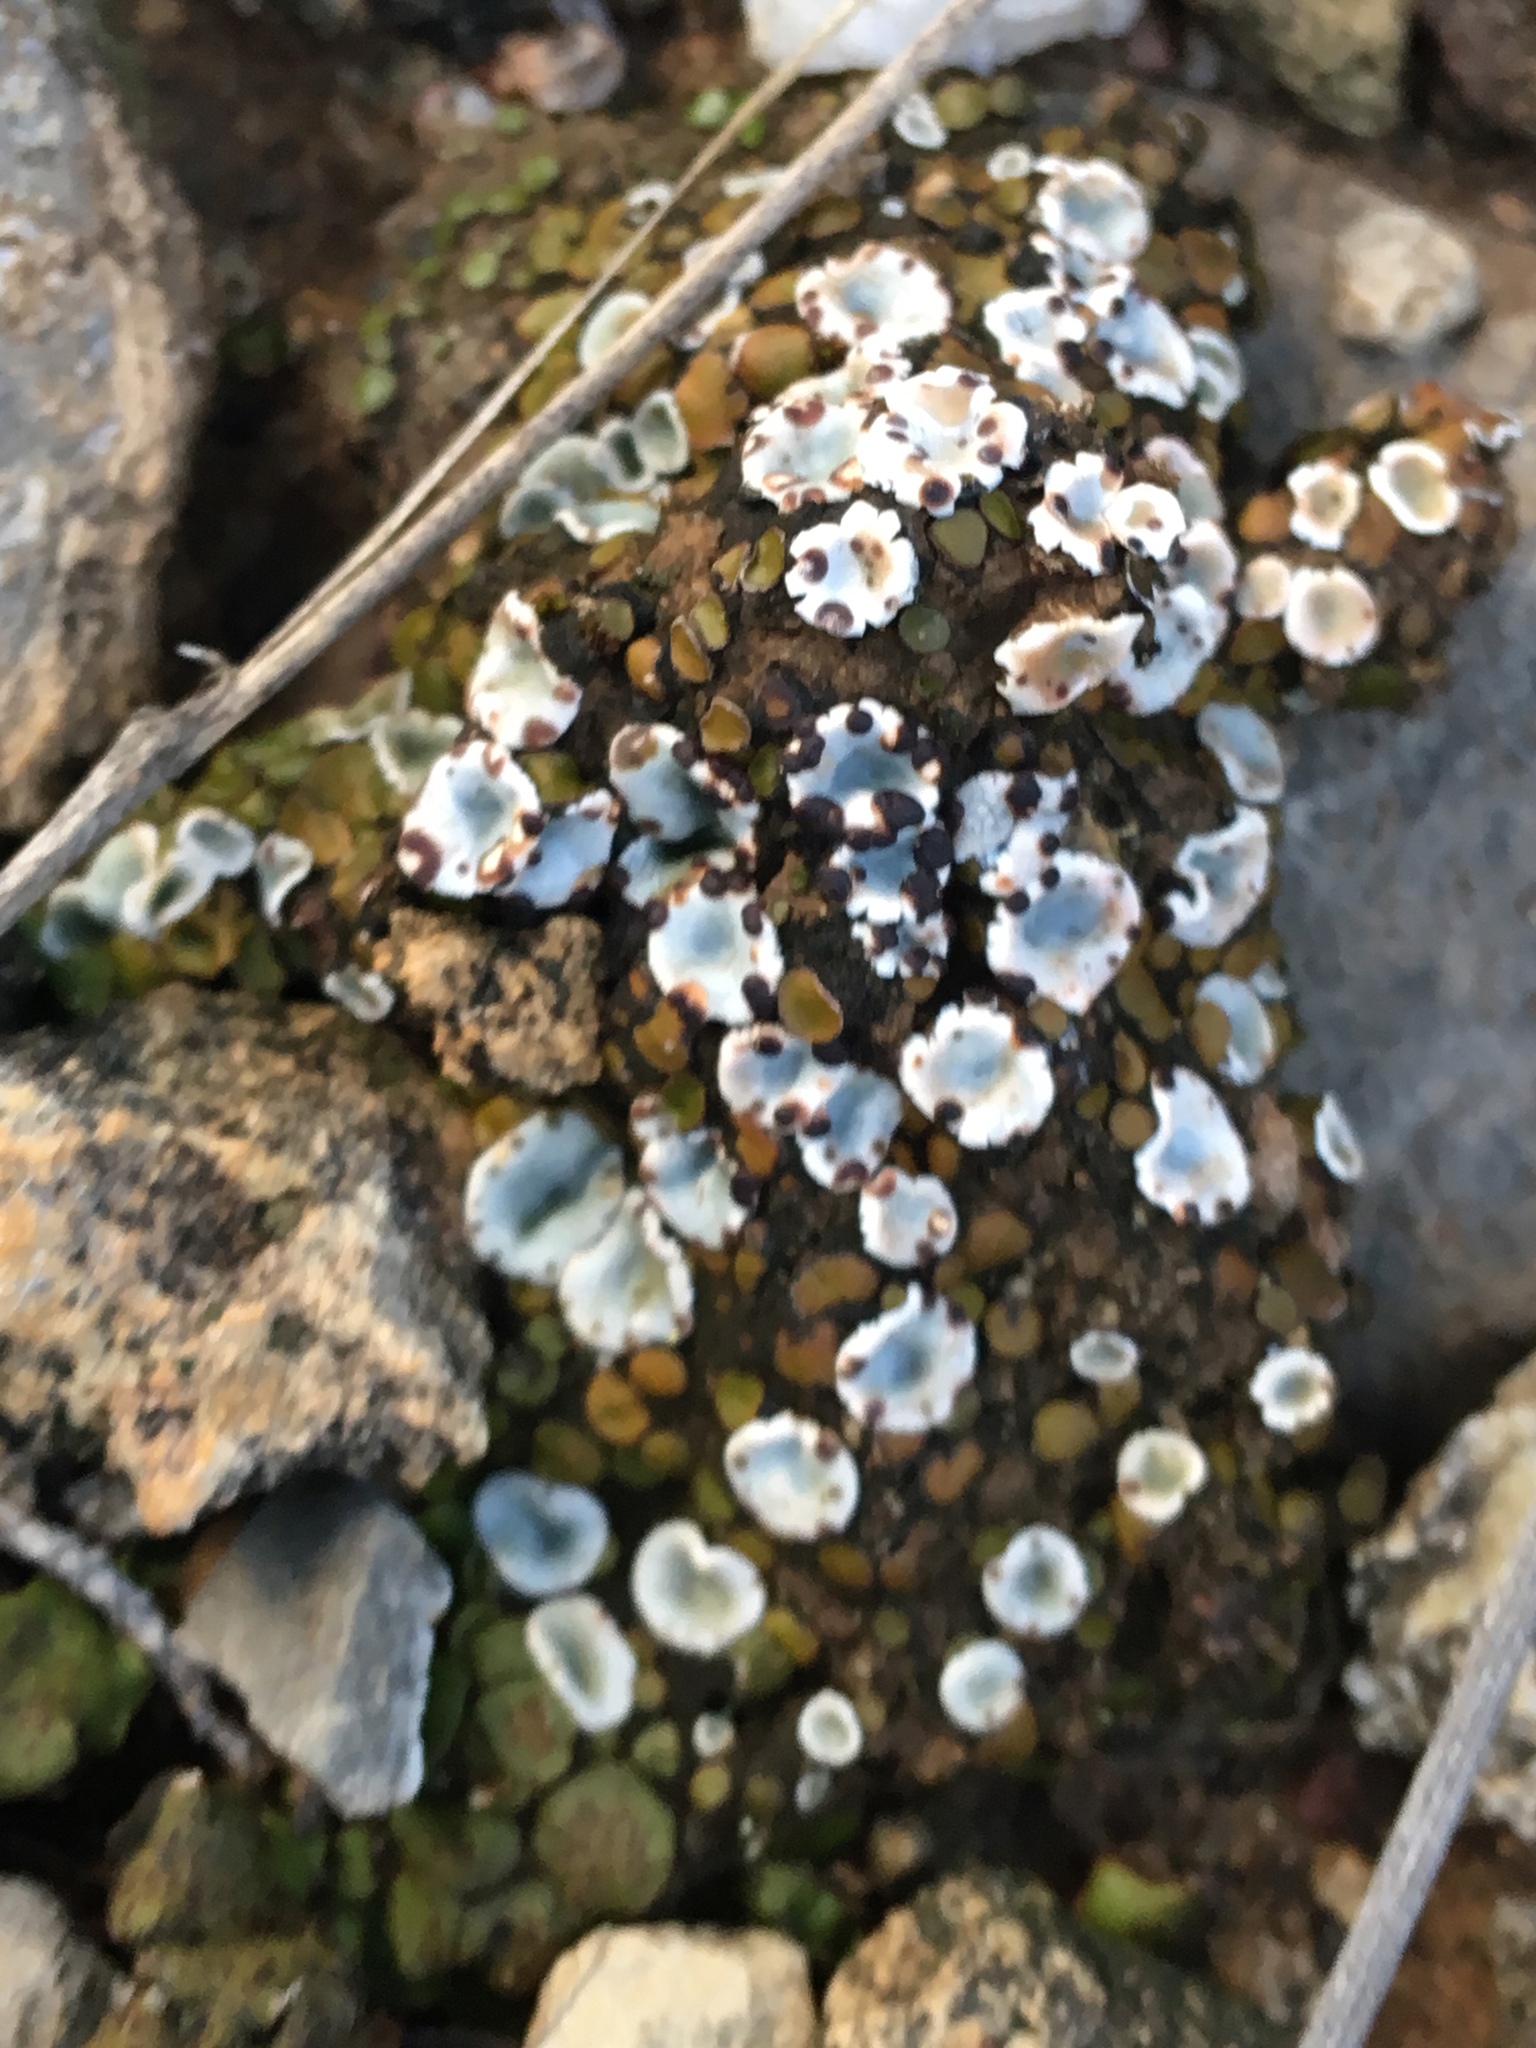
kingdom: Fungi
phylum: Ascomycota
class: Lecanoromycetes
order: Lecanorales
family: Psoraceae
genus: Psora
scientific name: Psora crenata
